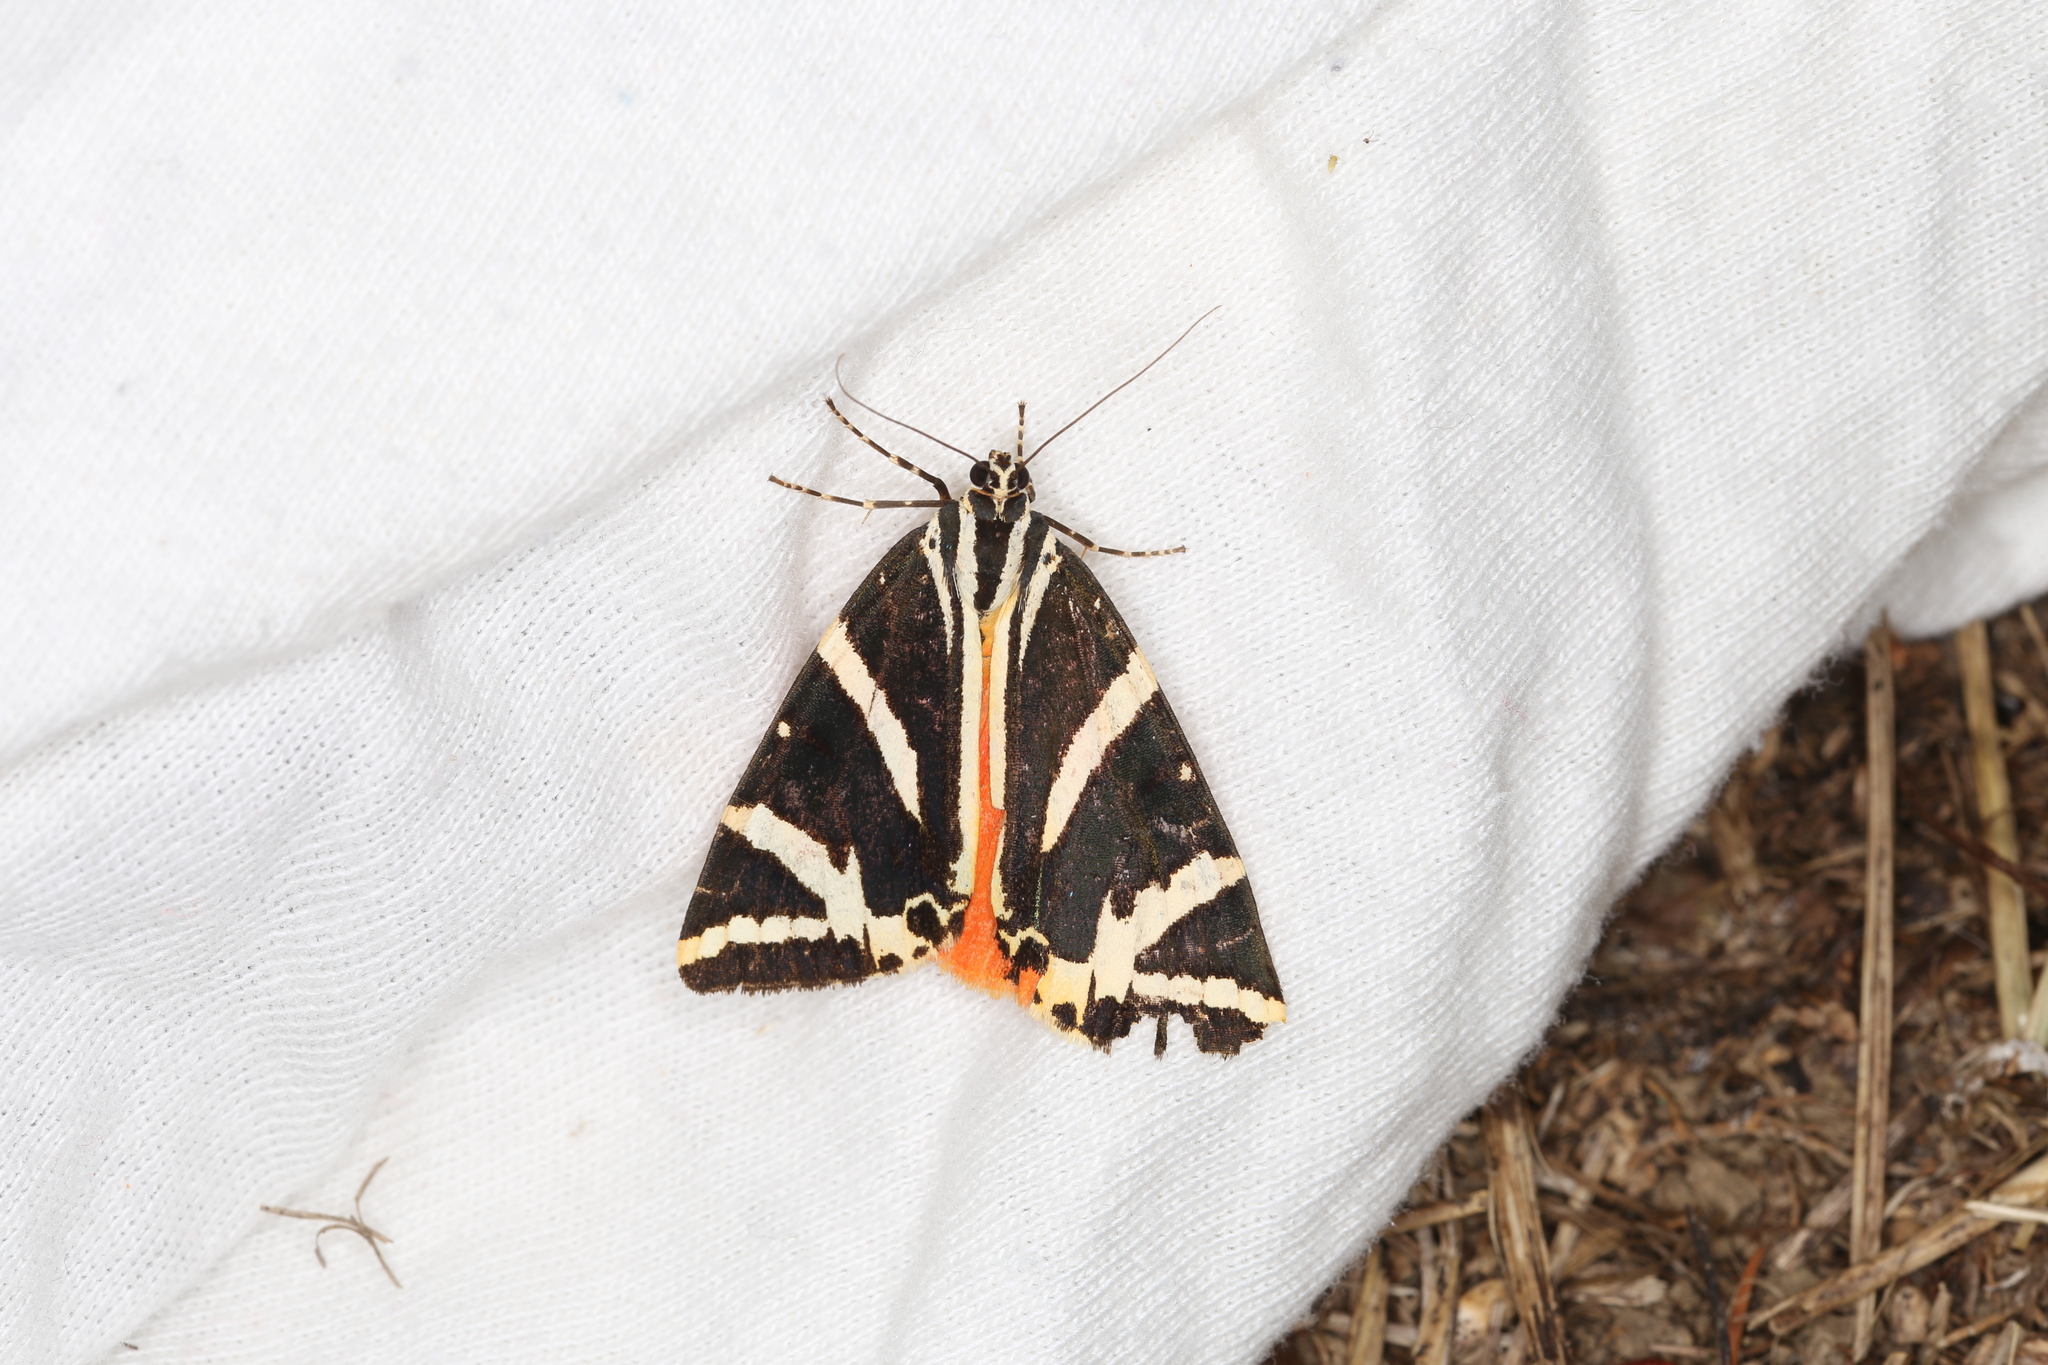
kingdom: Animalia
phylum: Arthropoda
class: Insecta
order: Lepidoptera
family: Erebidae
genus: Euplagia
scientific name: Euplagia quadripunctaria
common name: Jersey tiger
